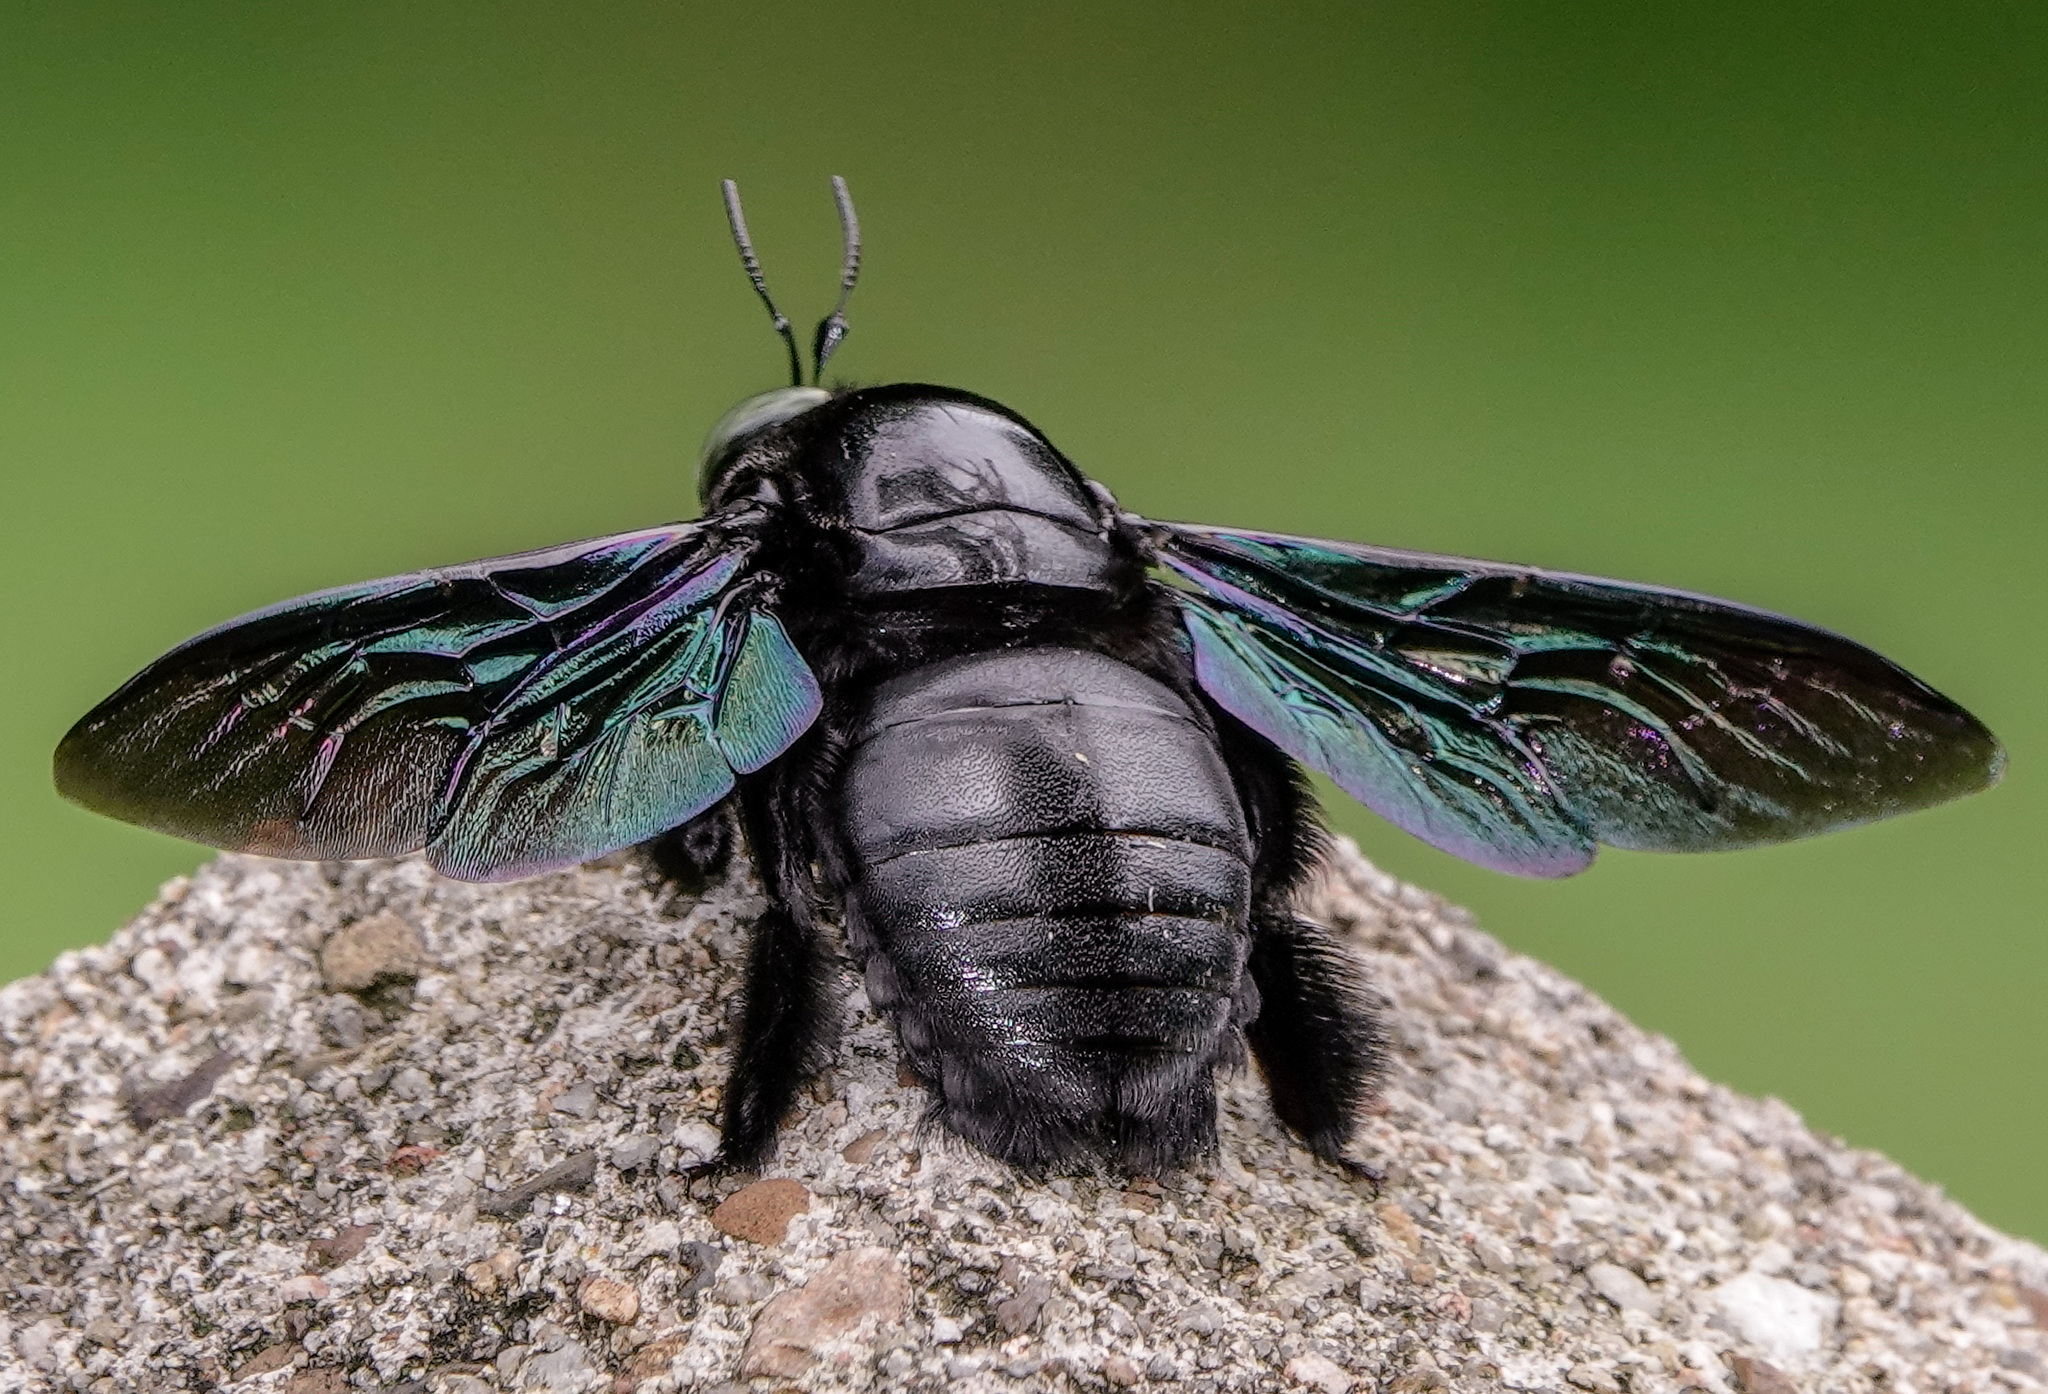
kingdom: Animalia
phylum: Arthropoda
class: Insecta
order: Hymenoptera
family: Apidae
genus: Xylocopa
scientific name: Xylocopa latipes
